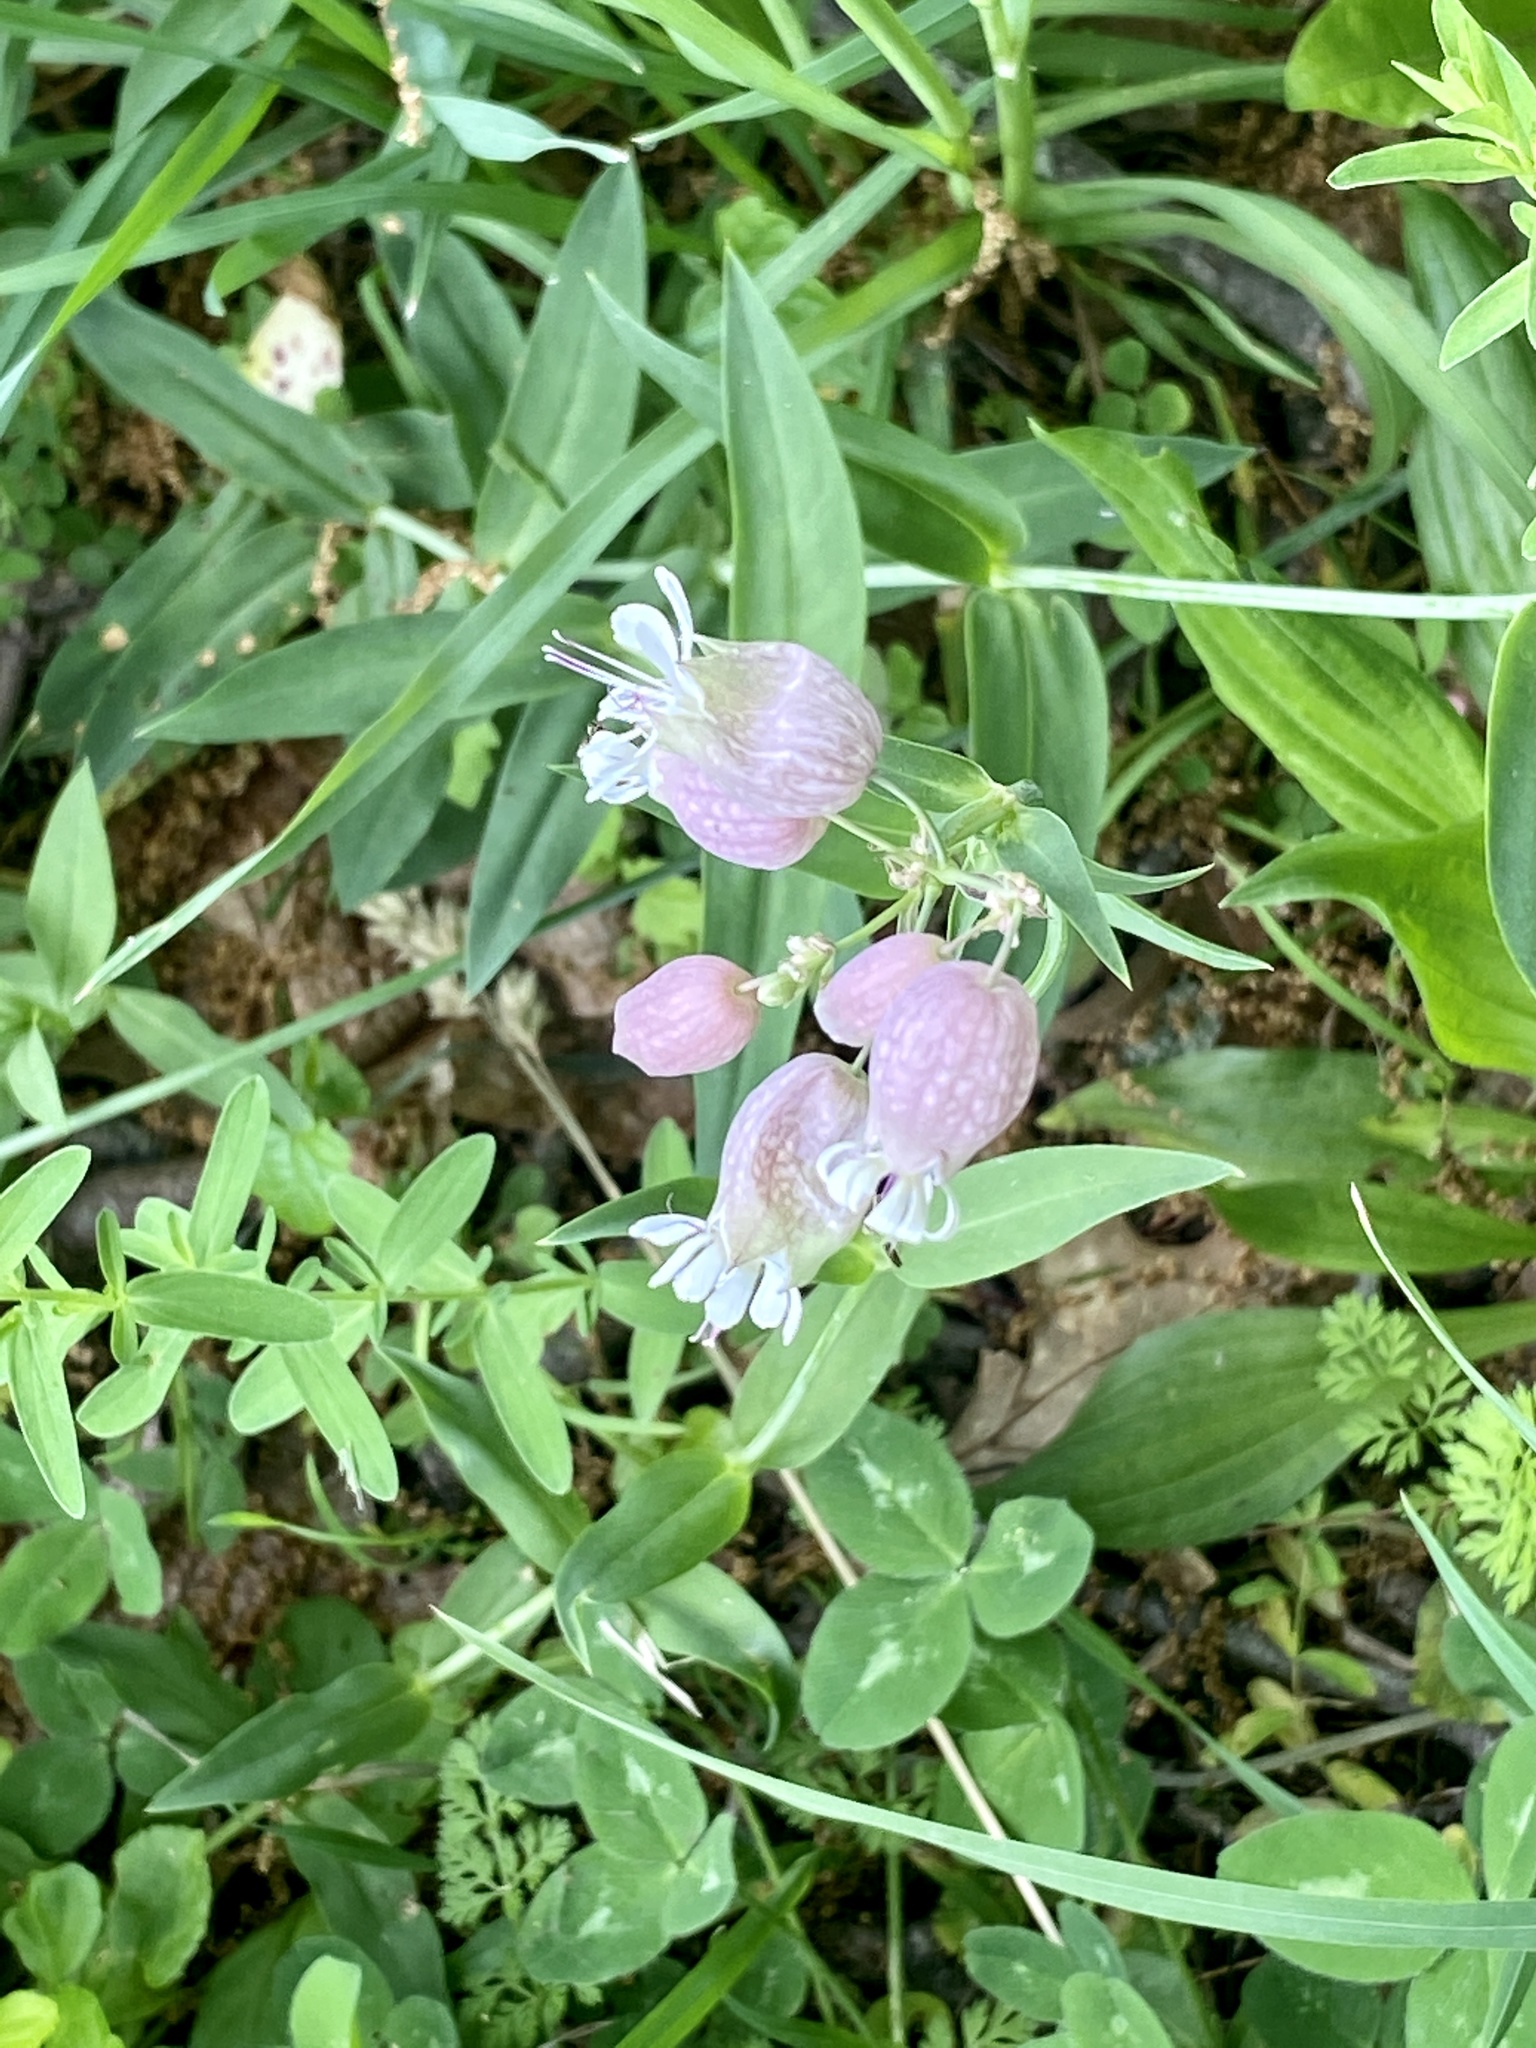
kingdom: Plantae
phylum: Tracheophyta
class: Magnoliopsida
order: Caryophyllales
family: Caryophyllaceae
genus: Silene
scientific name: Silene vulgaris
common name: Bladder campion
